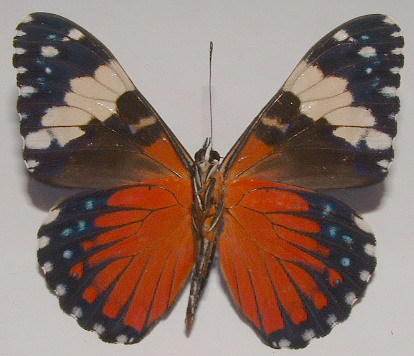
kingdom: Animalia
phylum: Arthropoda
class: Insecta
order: Lepidoptera
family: Nymphalidae
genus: Hamadryas
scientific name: Hamadryas amphinome
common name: Red cracker
